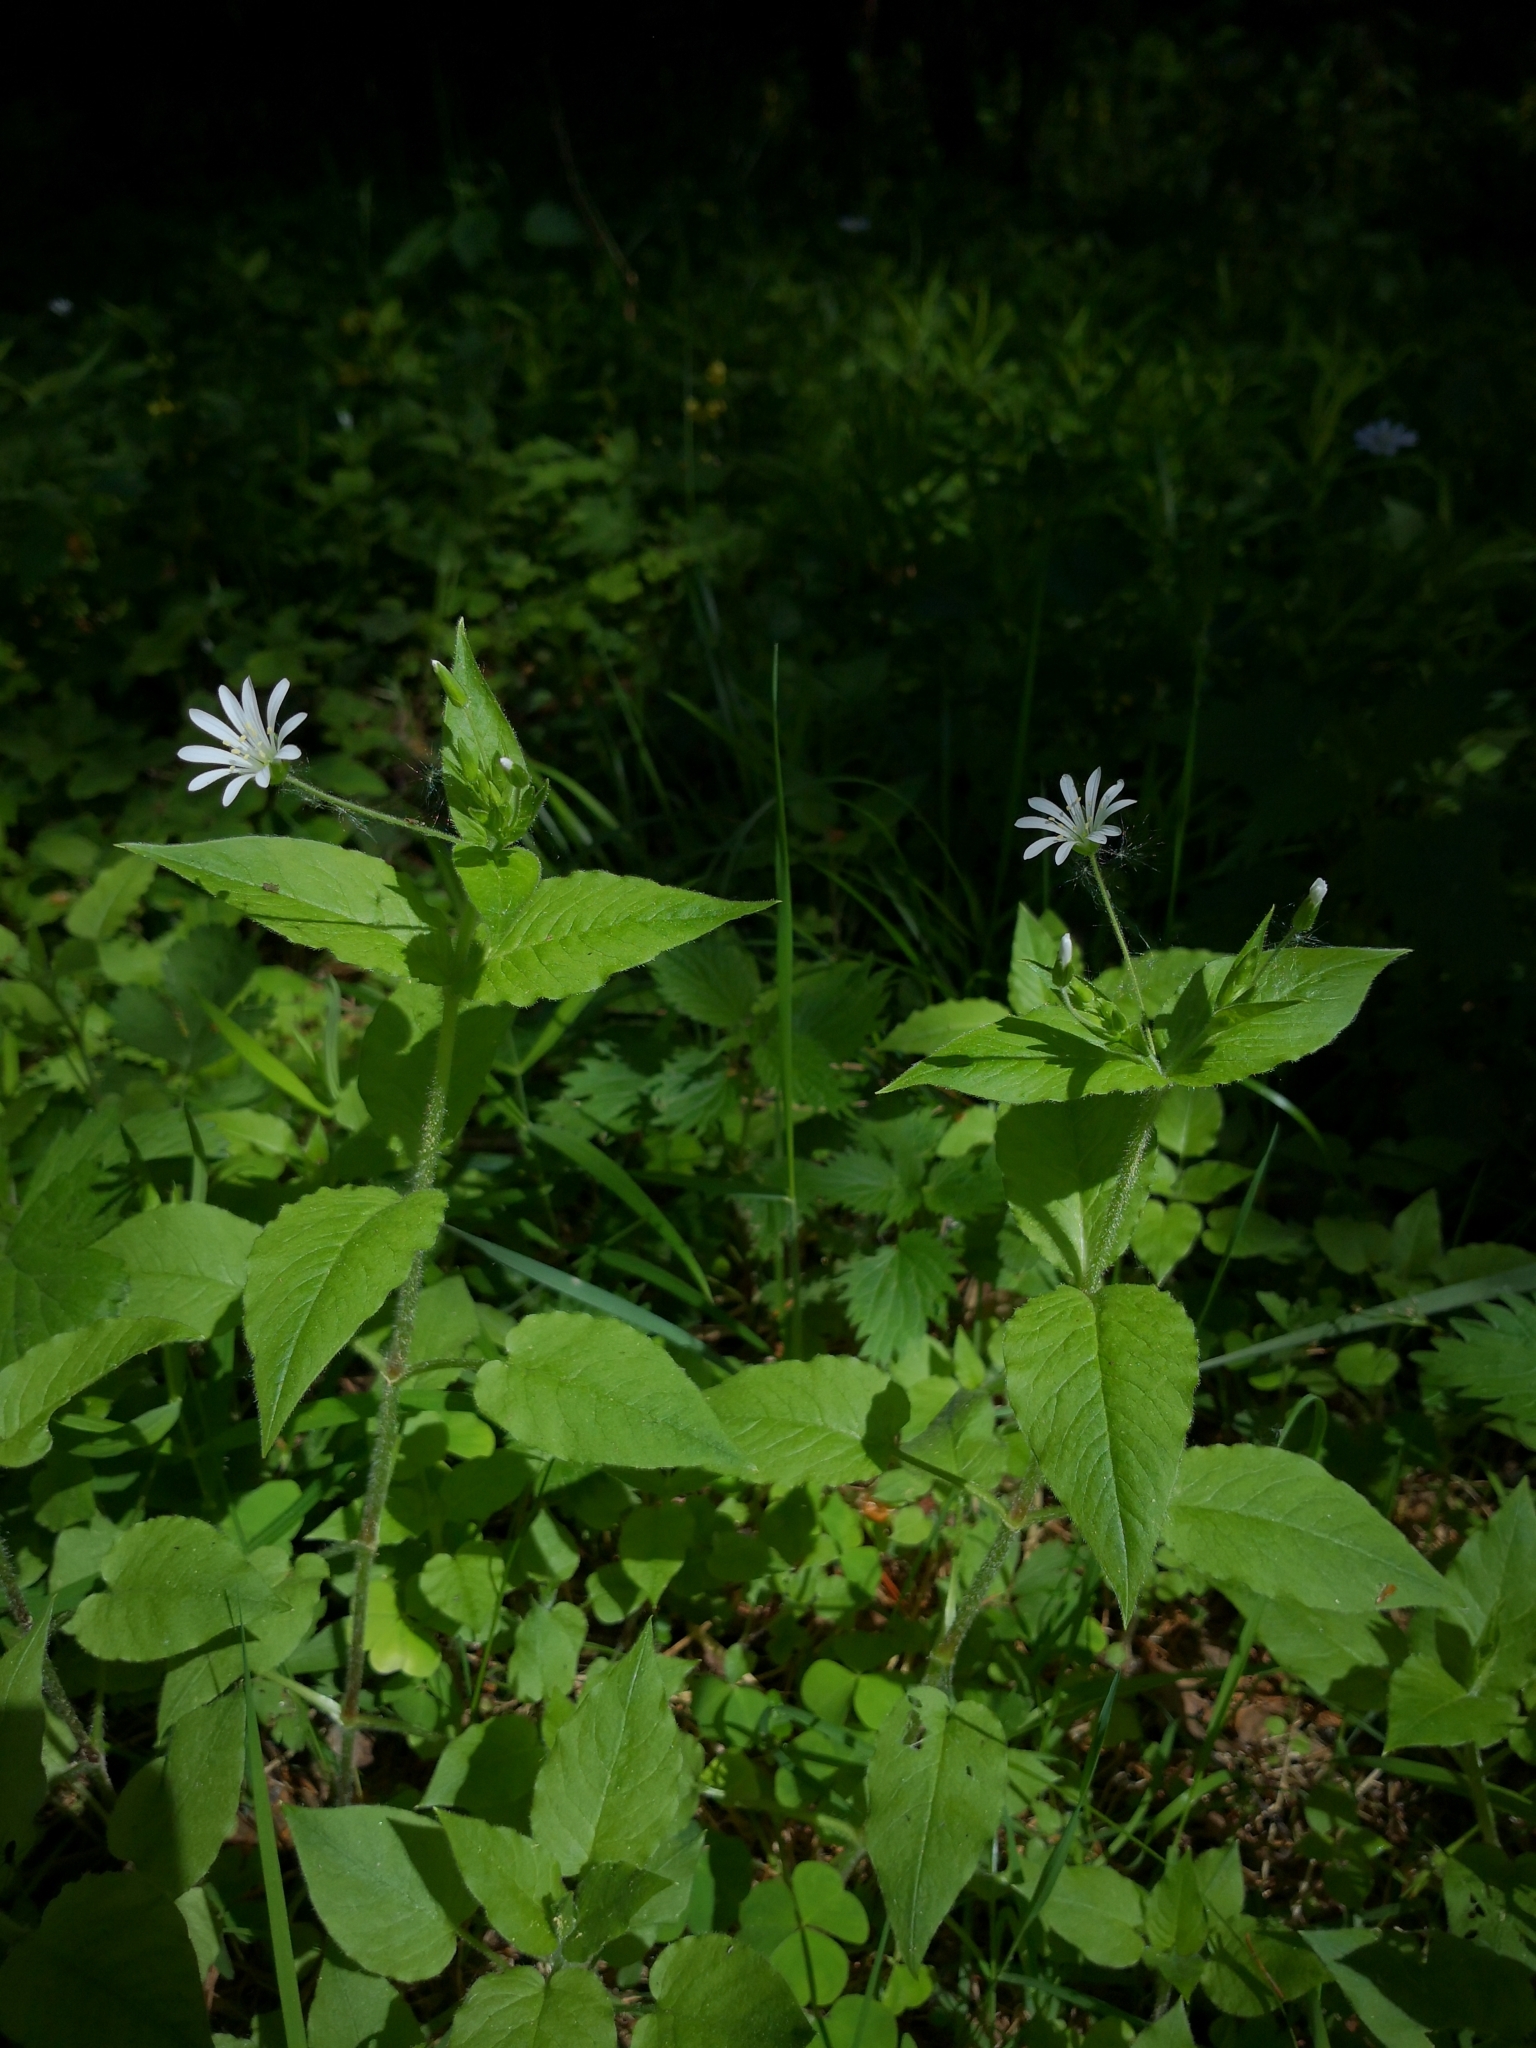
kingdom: Plantae
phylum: Tracheophyta
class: Magnoliopsida
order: Caryophyllales
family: Caryophyllaceae
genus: Stellaria
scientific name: Stellaria nemorum
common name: Wood stitchwort
